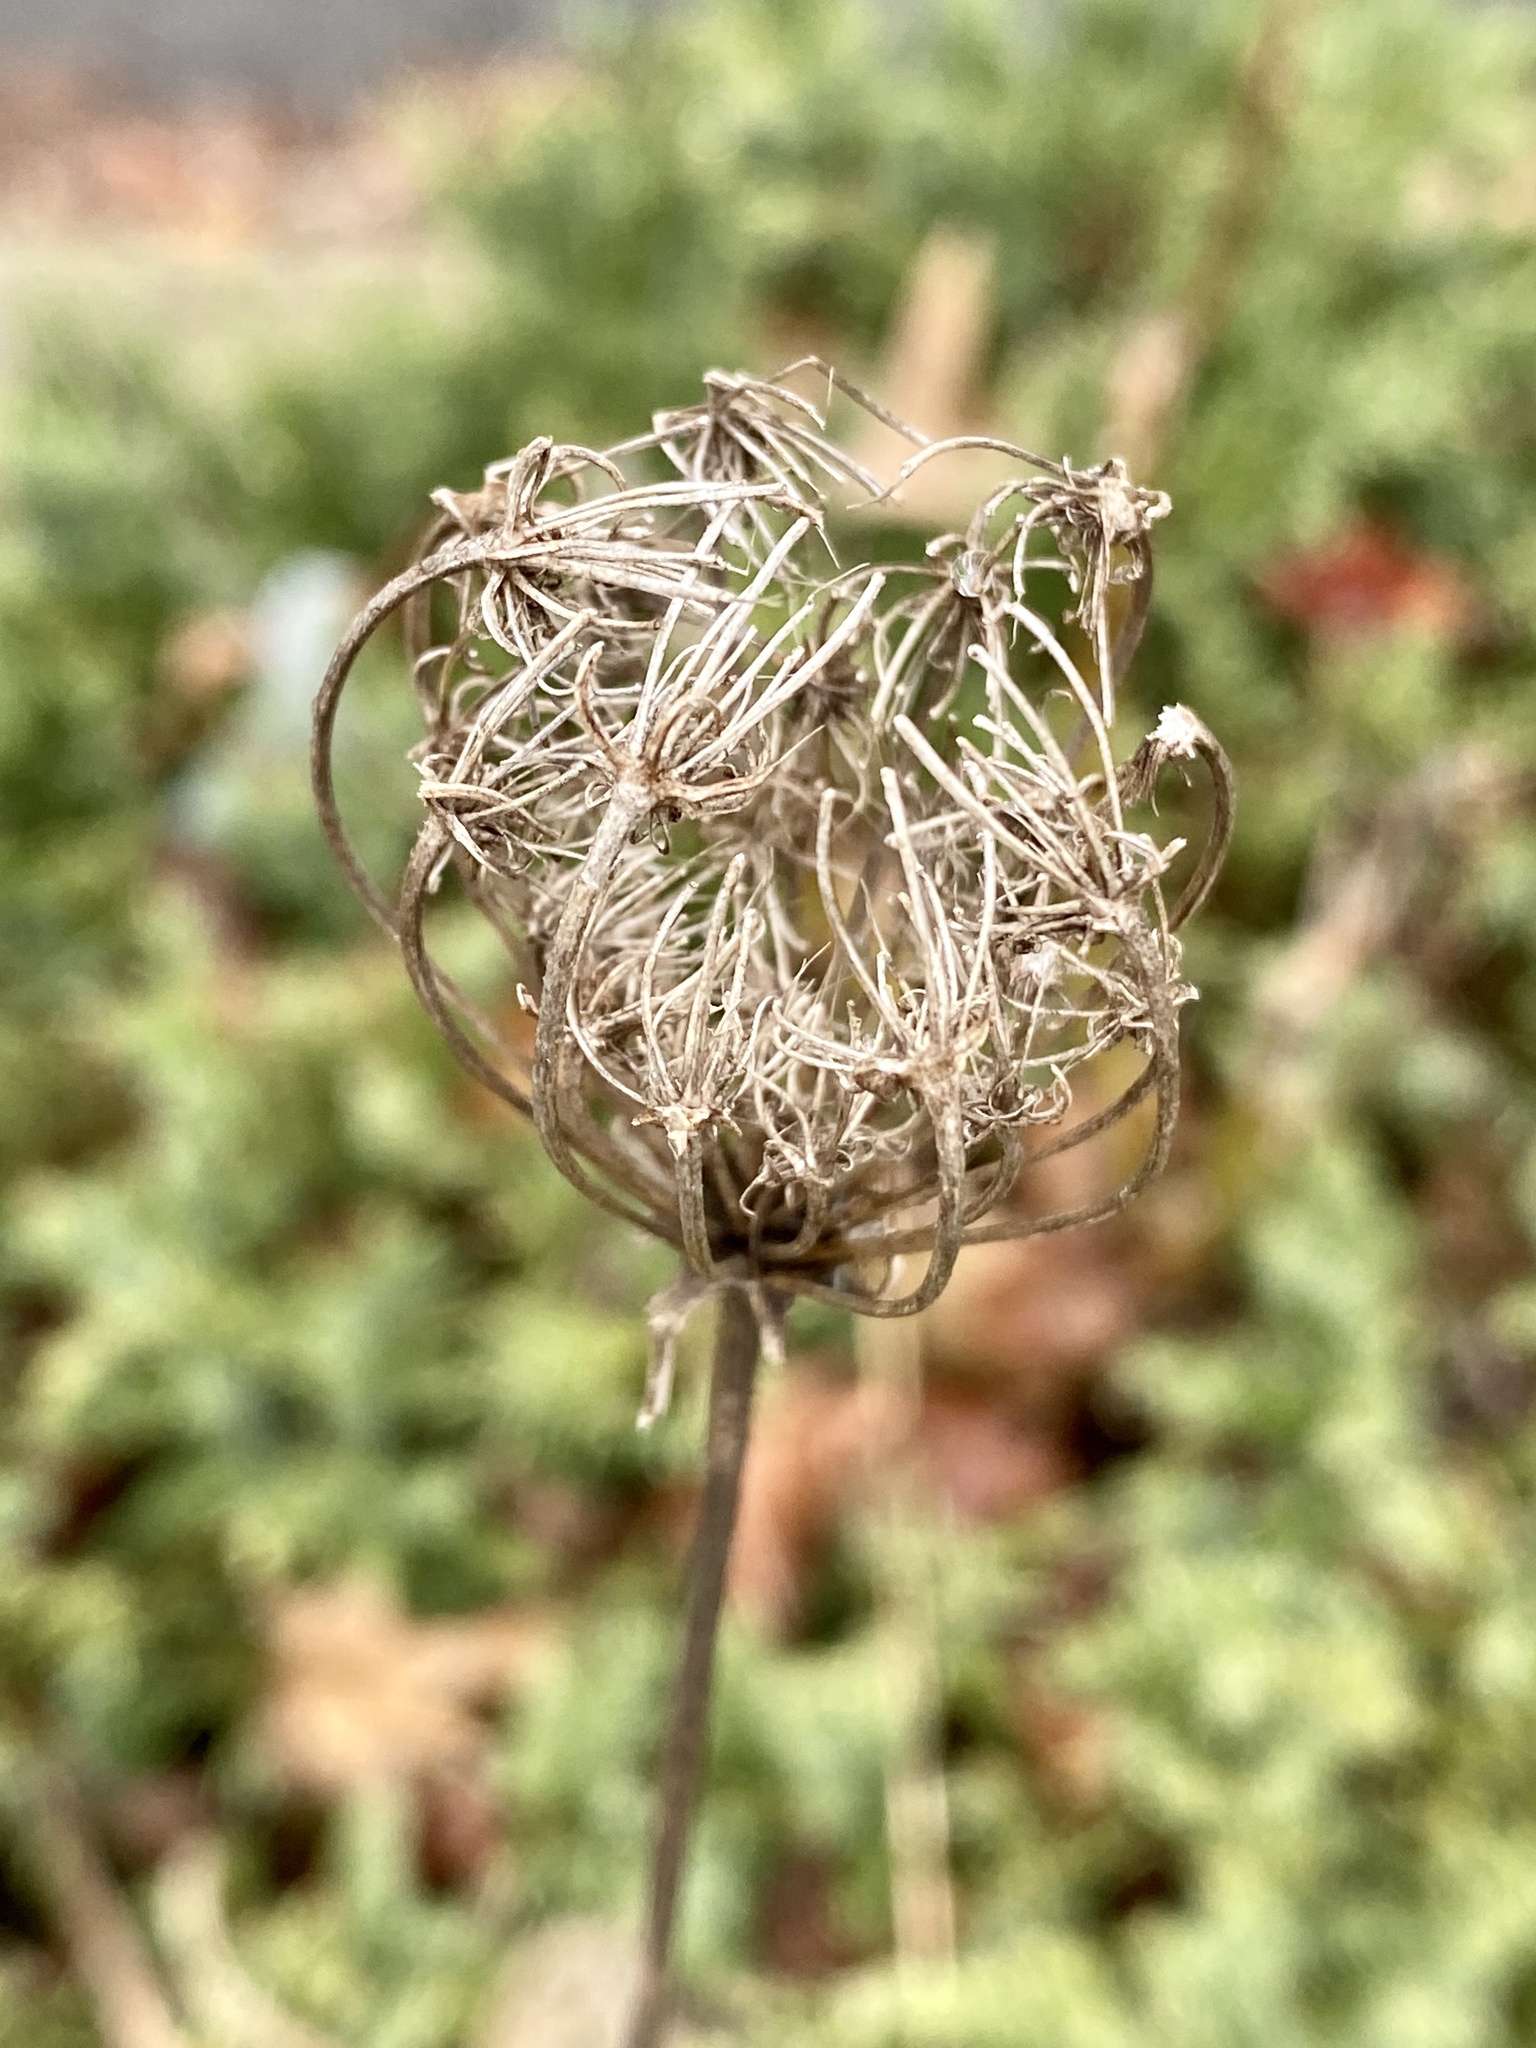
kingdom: Plantae
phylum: Tracheophyta
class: Magnoliopsida
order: Apiales
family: Apiaceae
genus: Daucus
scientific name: Daucus carota
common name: Wild carrot
